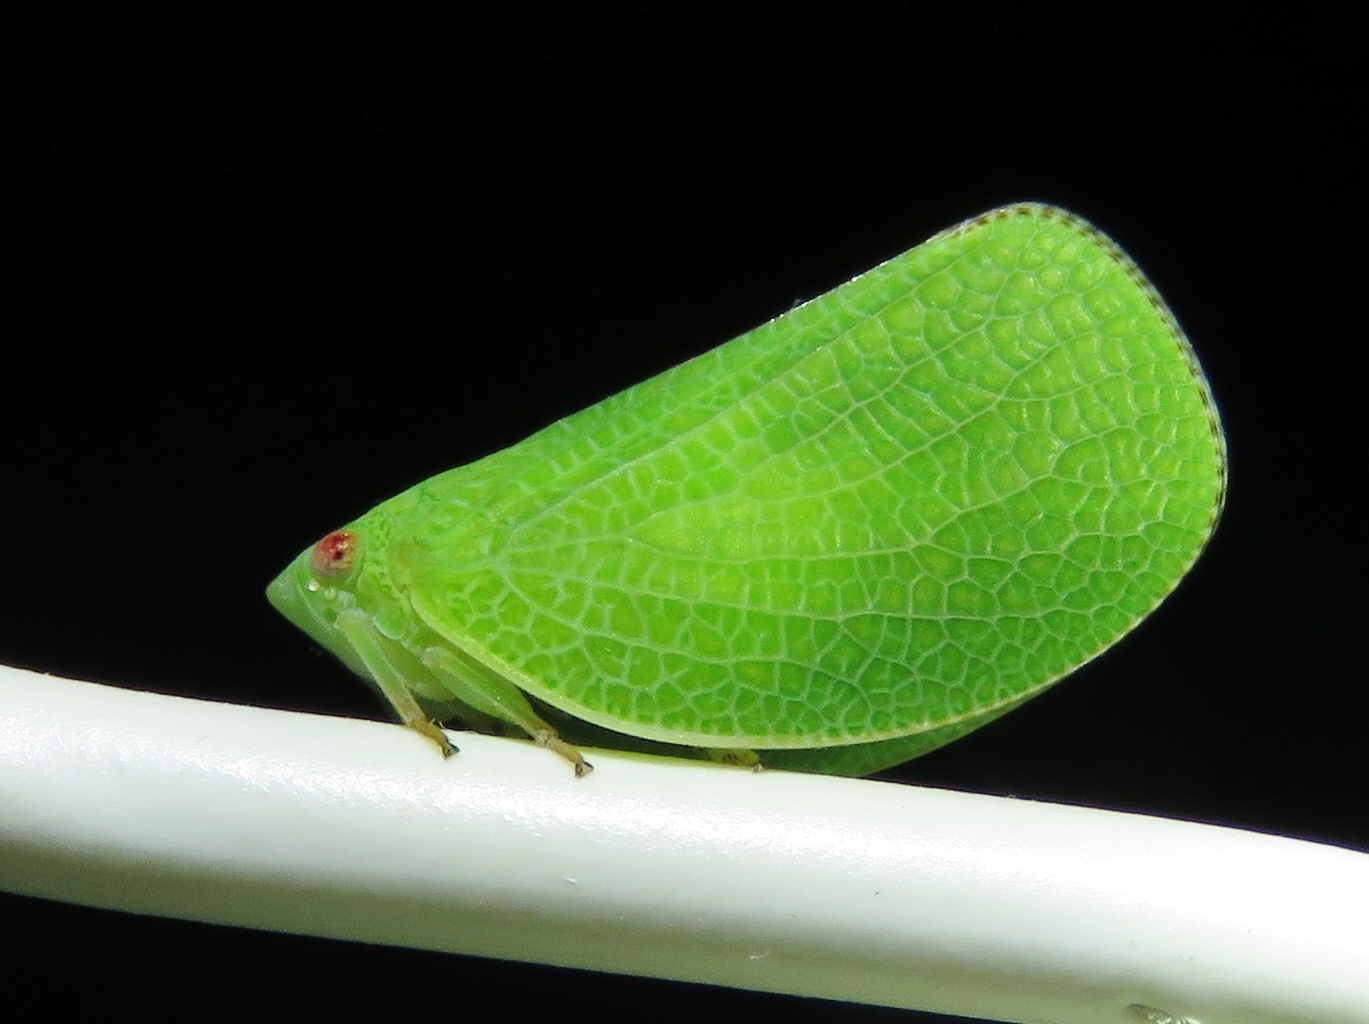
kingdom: Animalia
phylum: Arthropoda
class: Insecta
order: Hemiptera
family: Acanaloniidae
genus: Acanalonia
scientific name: Acanalonia conica
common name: Green cone-headed planthopper
